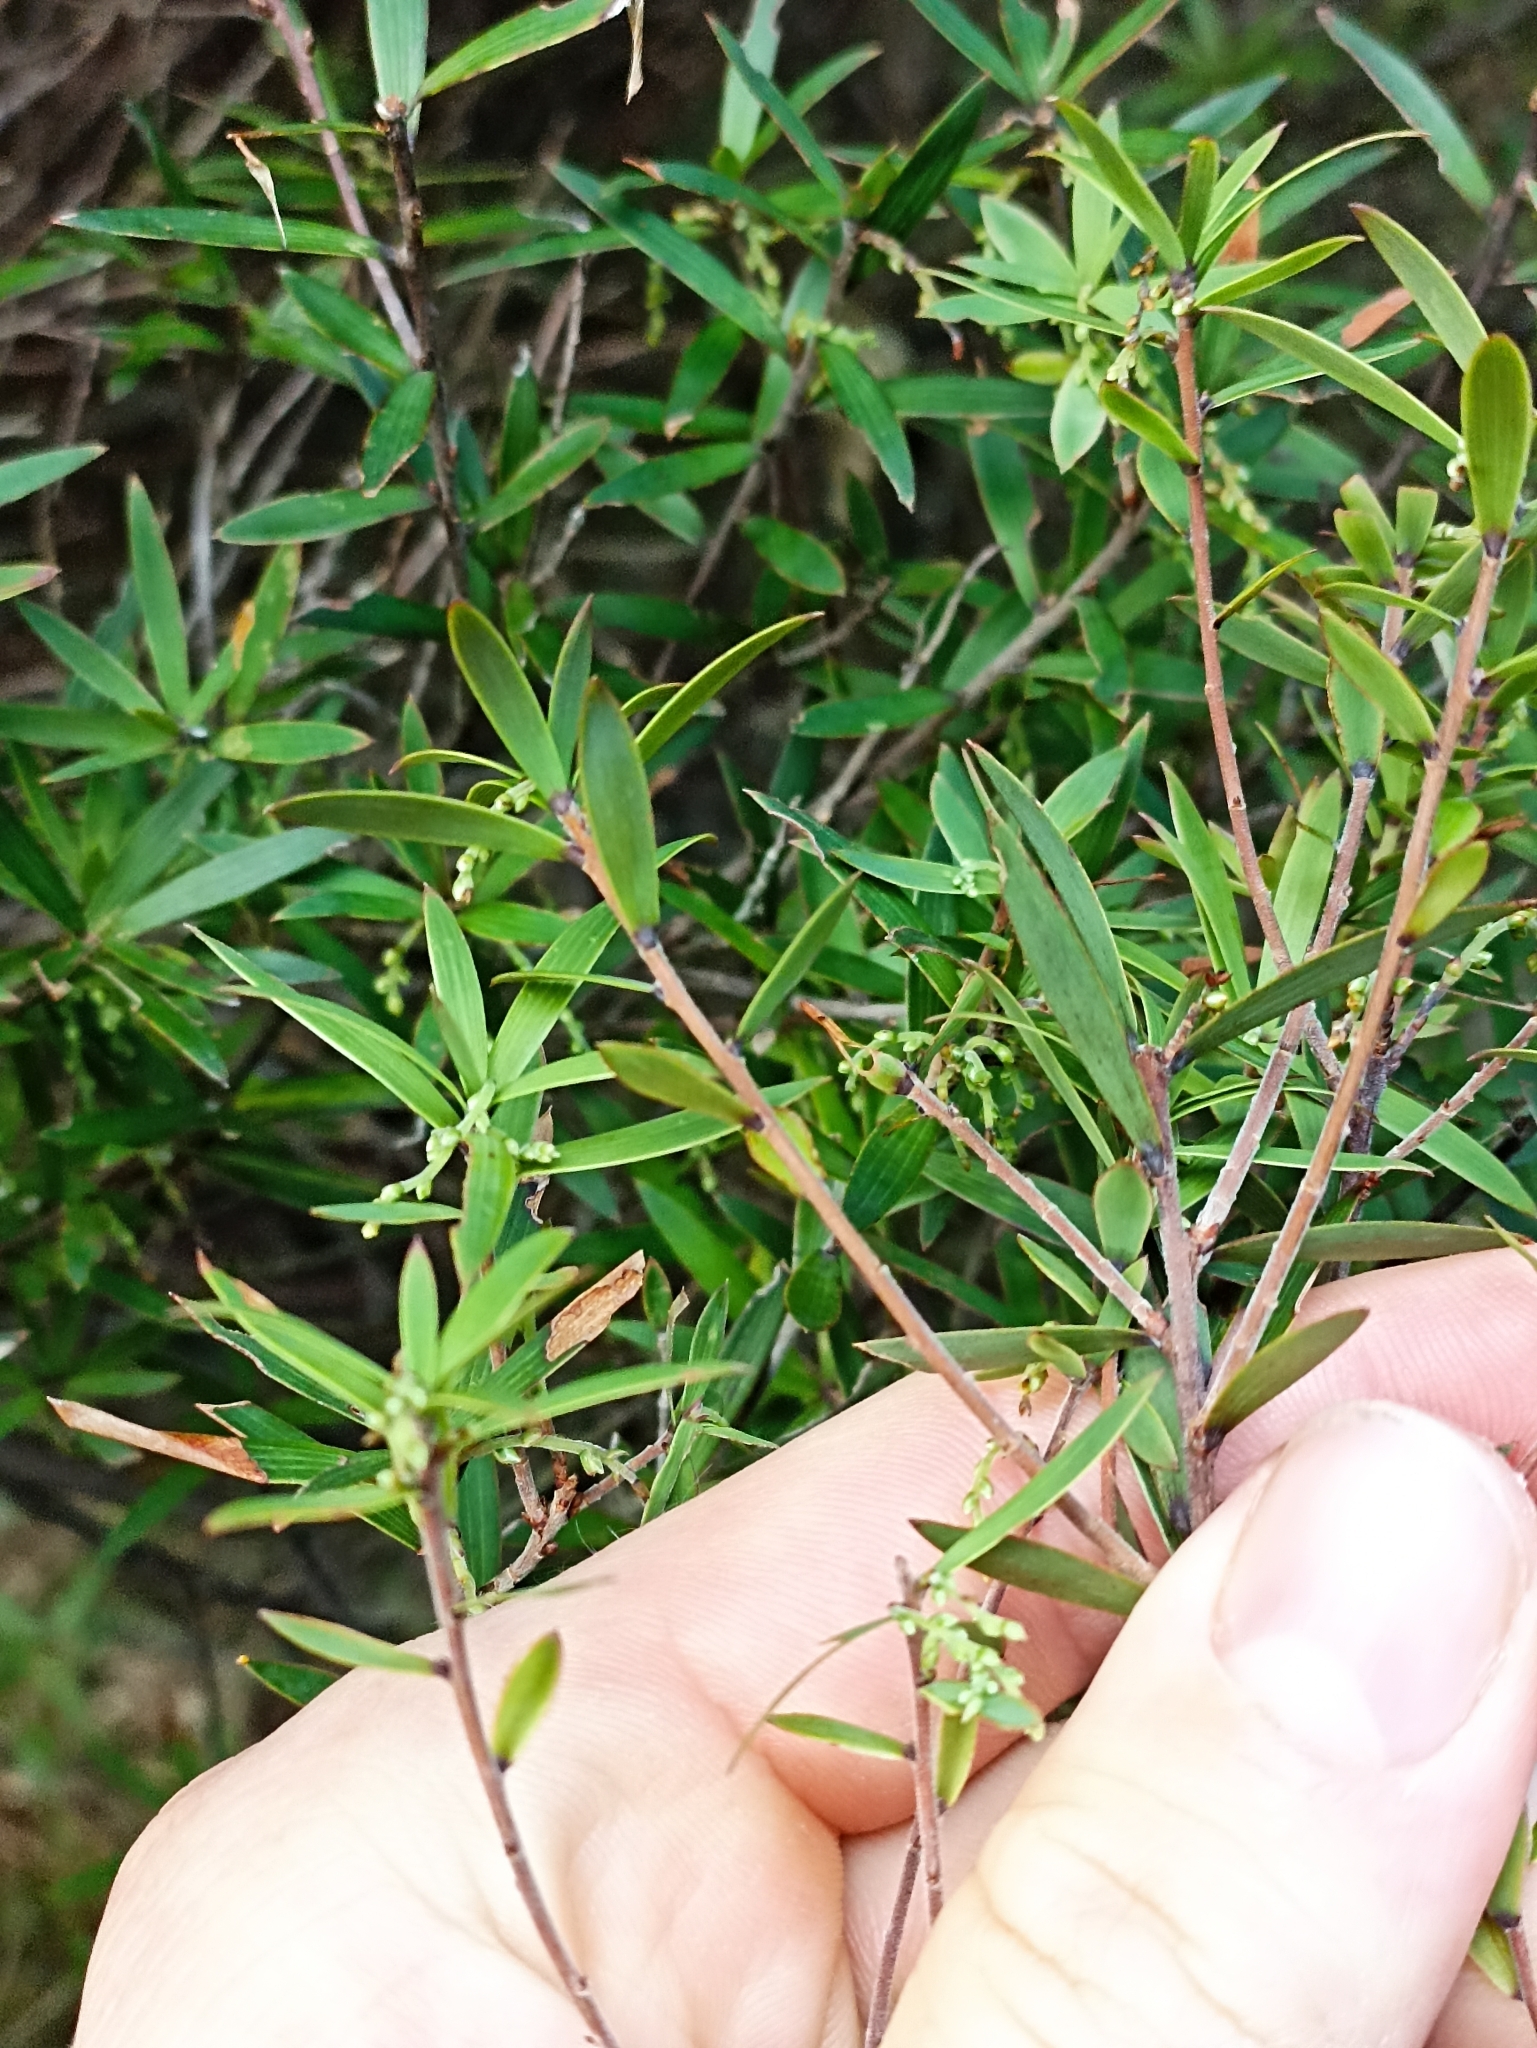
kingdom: Plantae
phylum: Tracheophyta
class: Magnoliopsida
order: Ericales
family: Ericaceae
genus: Leucopogon
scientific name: Leucopogon fasciculatus
